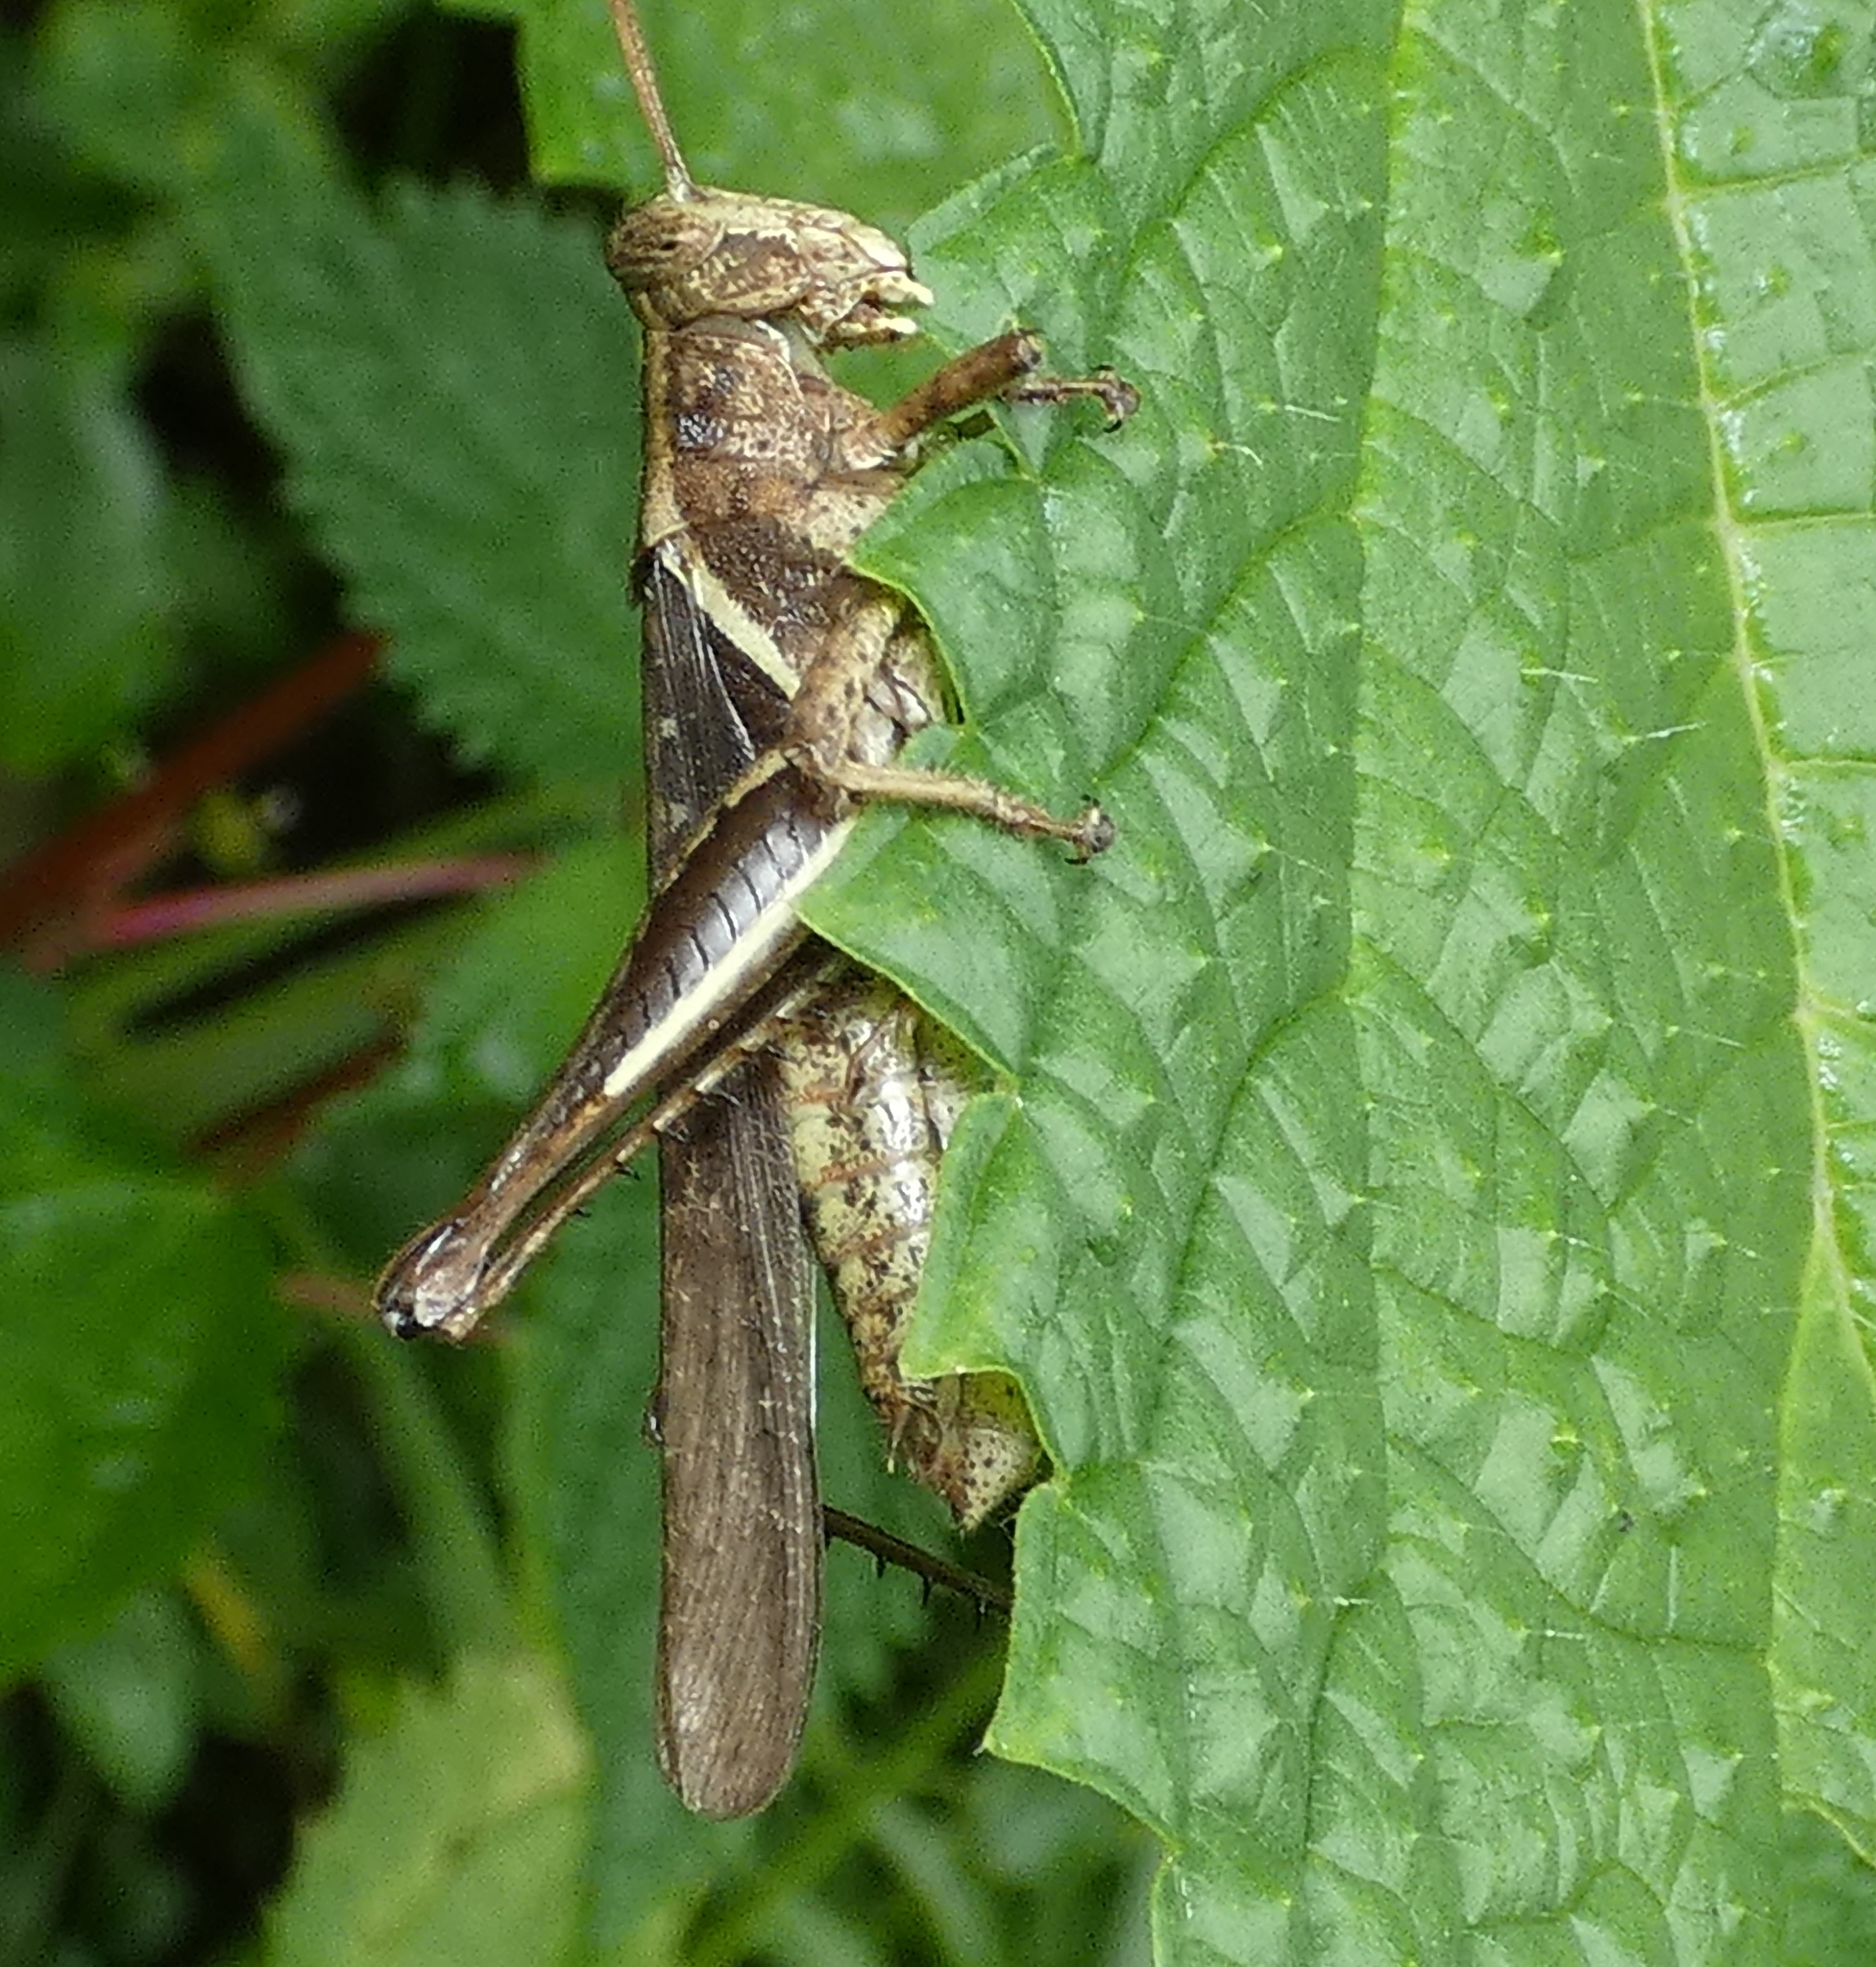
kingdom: Animalia
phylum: Arthropoda
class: Insecta
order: Orthoptera
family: Acrididae
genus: Abracris
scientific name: Abracris flavolineata
